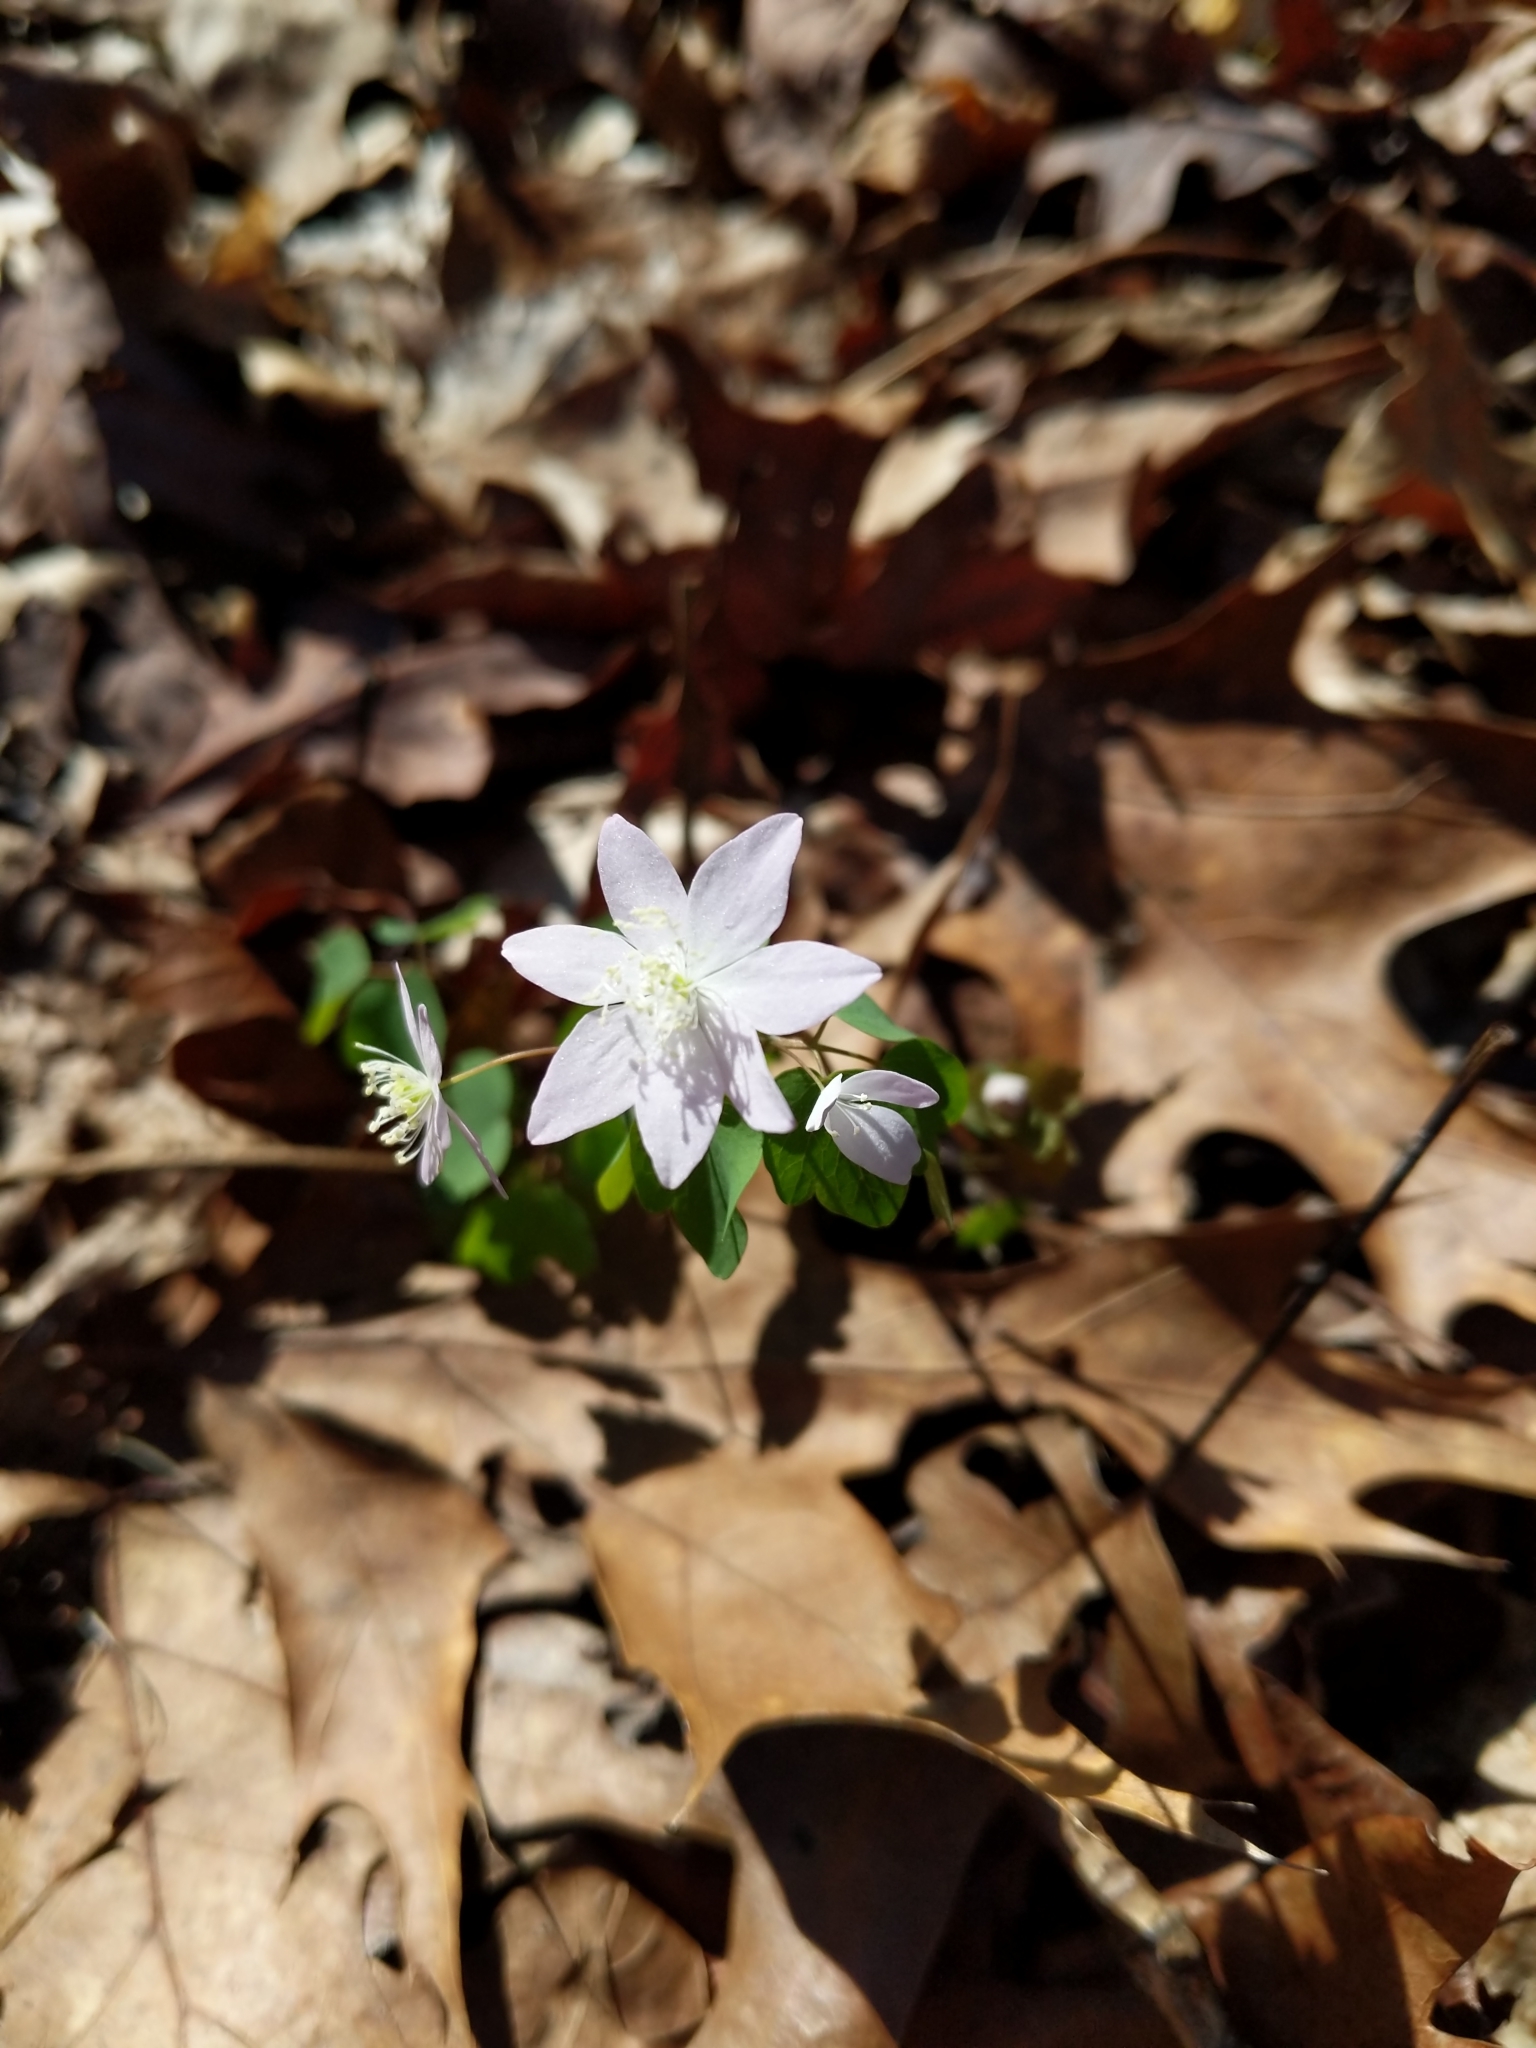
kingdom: Plantae
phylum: Tracheophyta
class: Magnoliopsida
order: Ranunculales
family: Ranunculaceae
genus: Thalictrum
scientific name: Thalictrum thalictroides
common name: Rue-anemone
